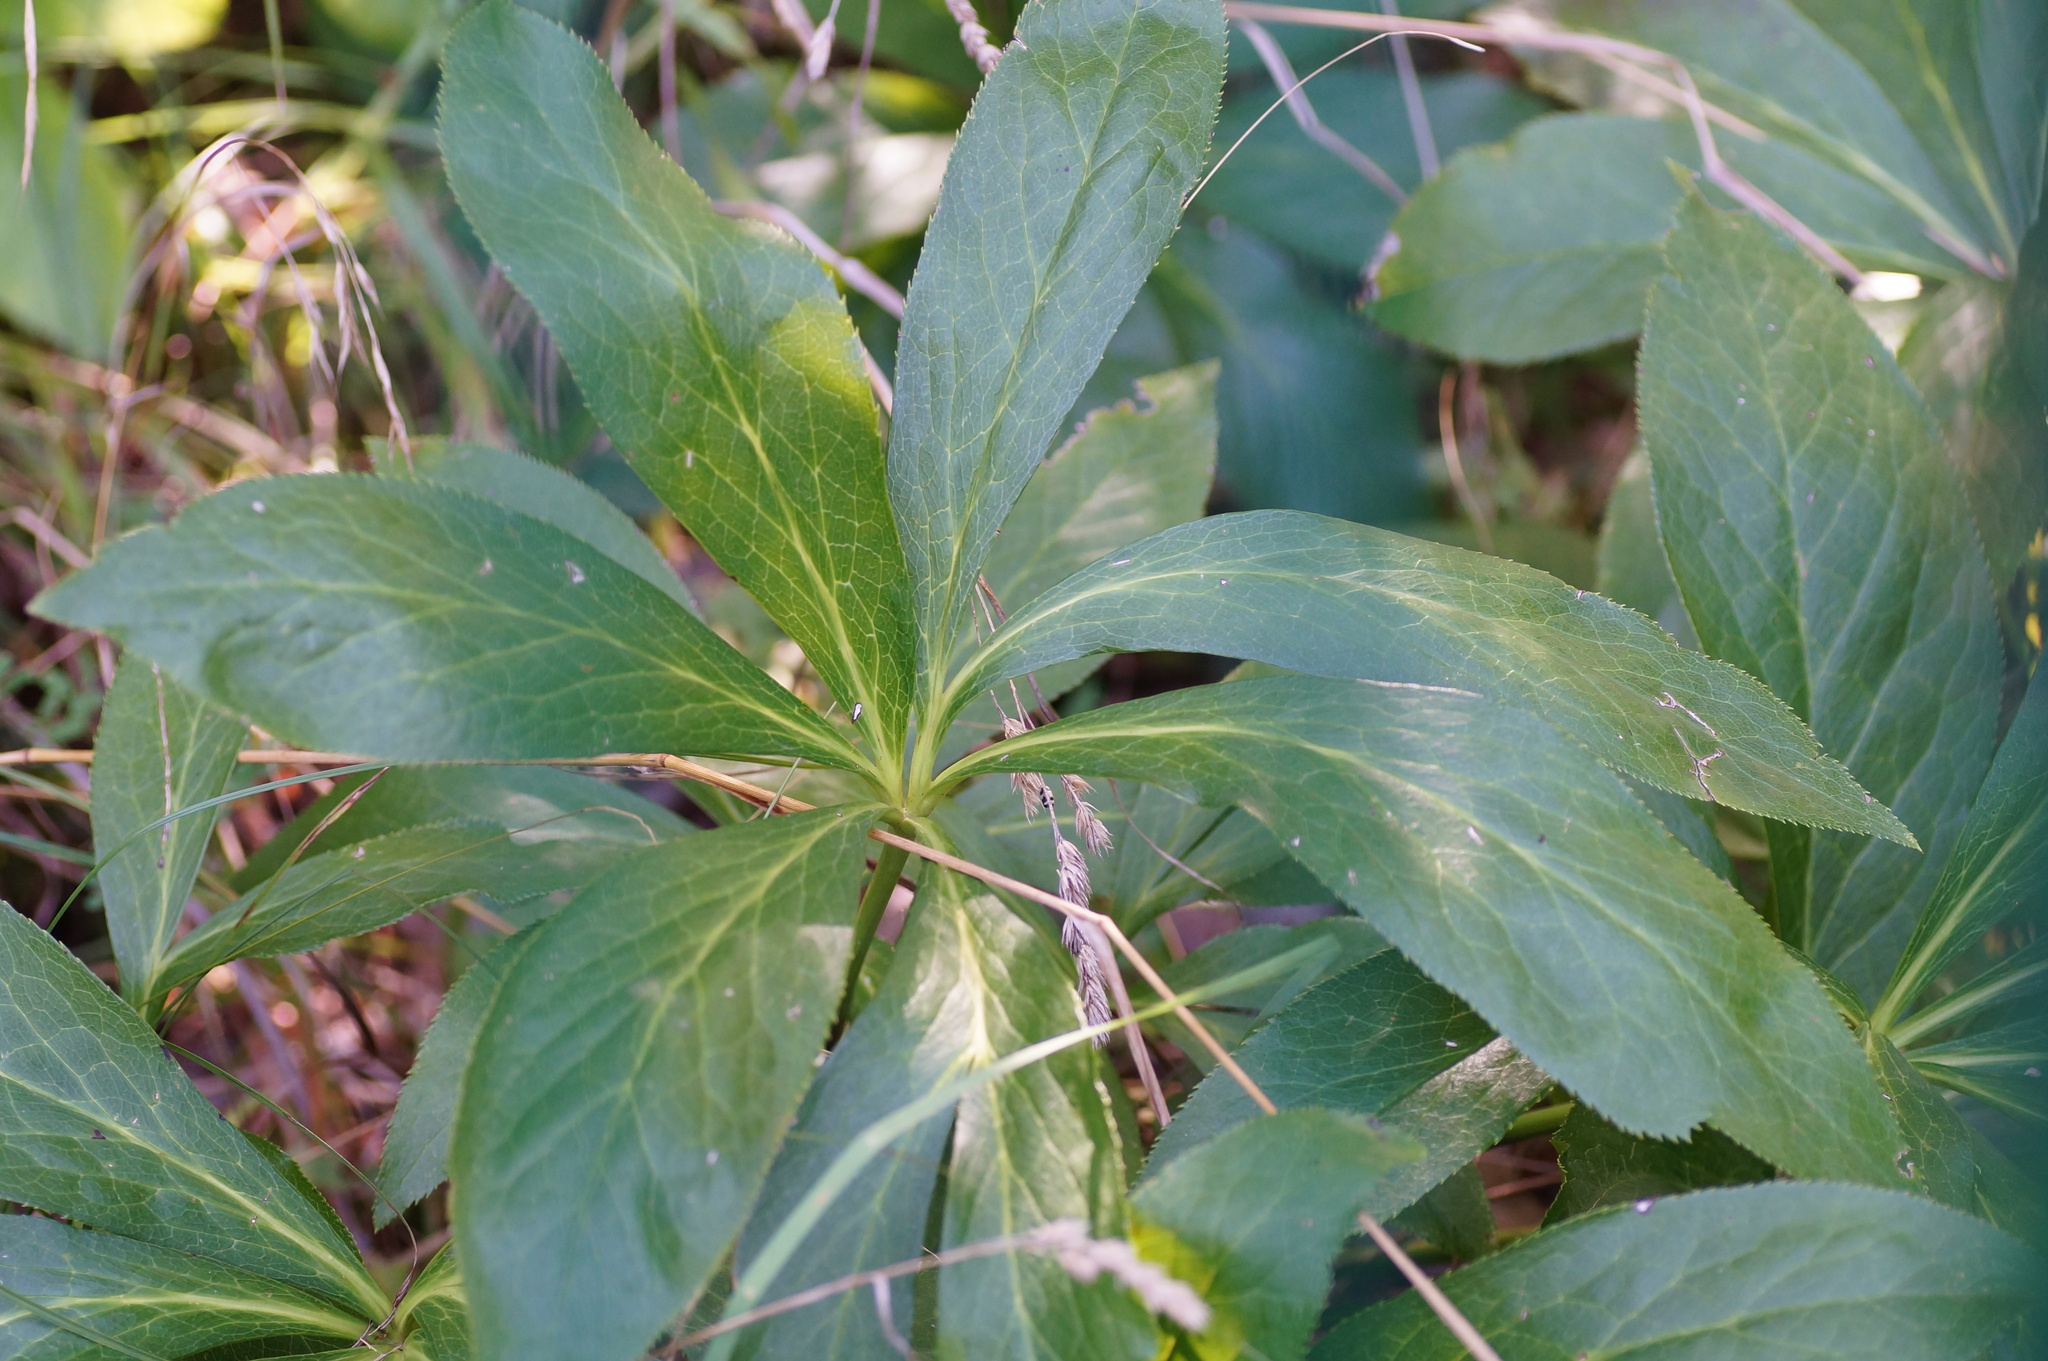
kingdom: Plantae
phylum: Tracheophyta
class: Magnoliopsida
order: Ranunculales
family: Ranunculaceae
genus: Helleborus
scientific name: Helleborus orientalis
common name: Lenten-rose
